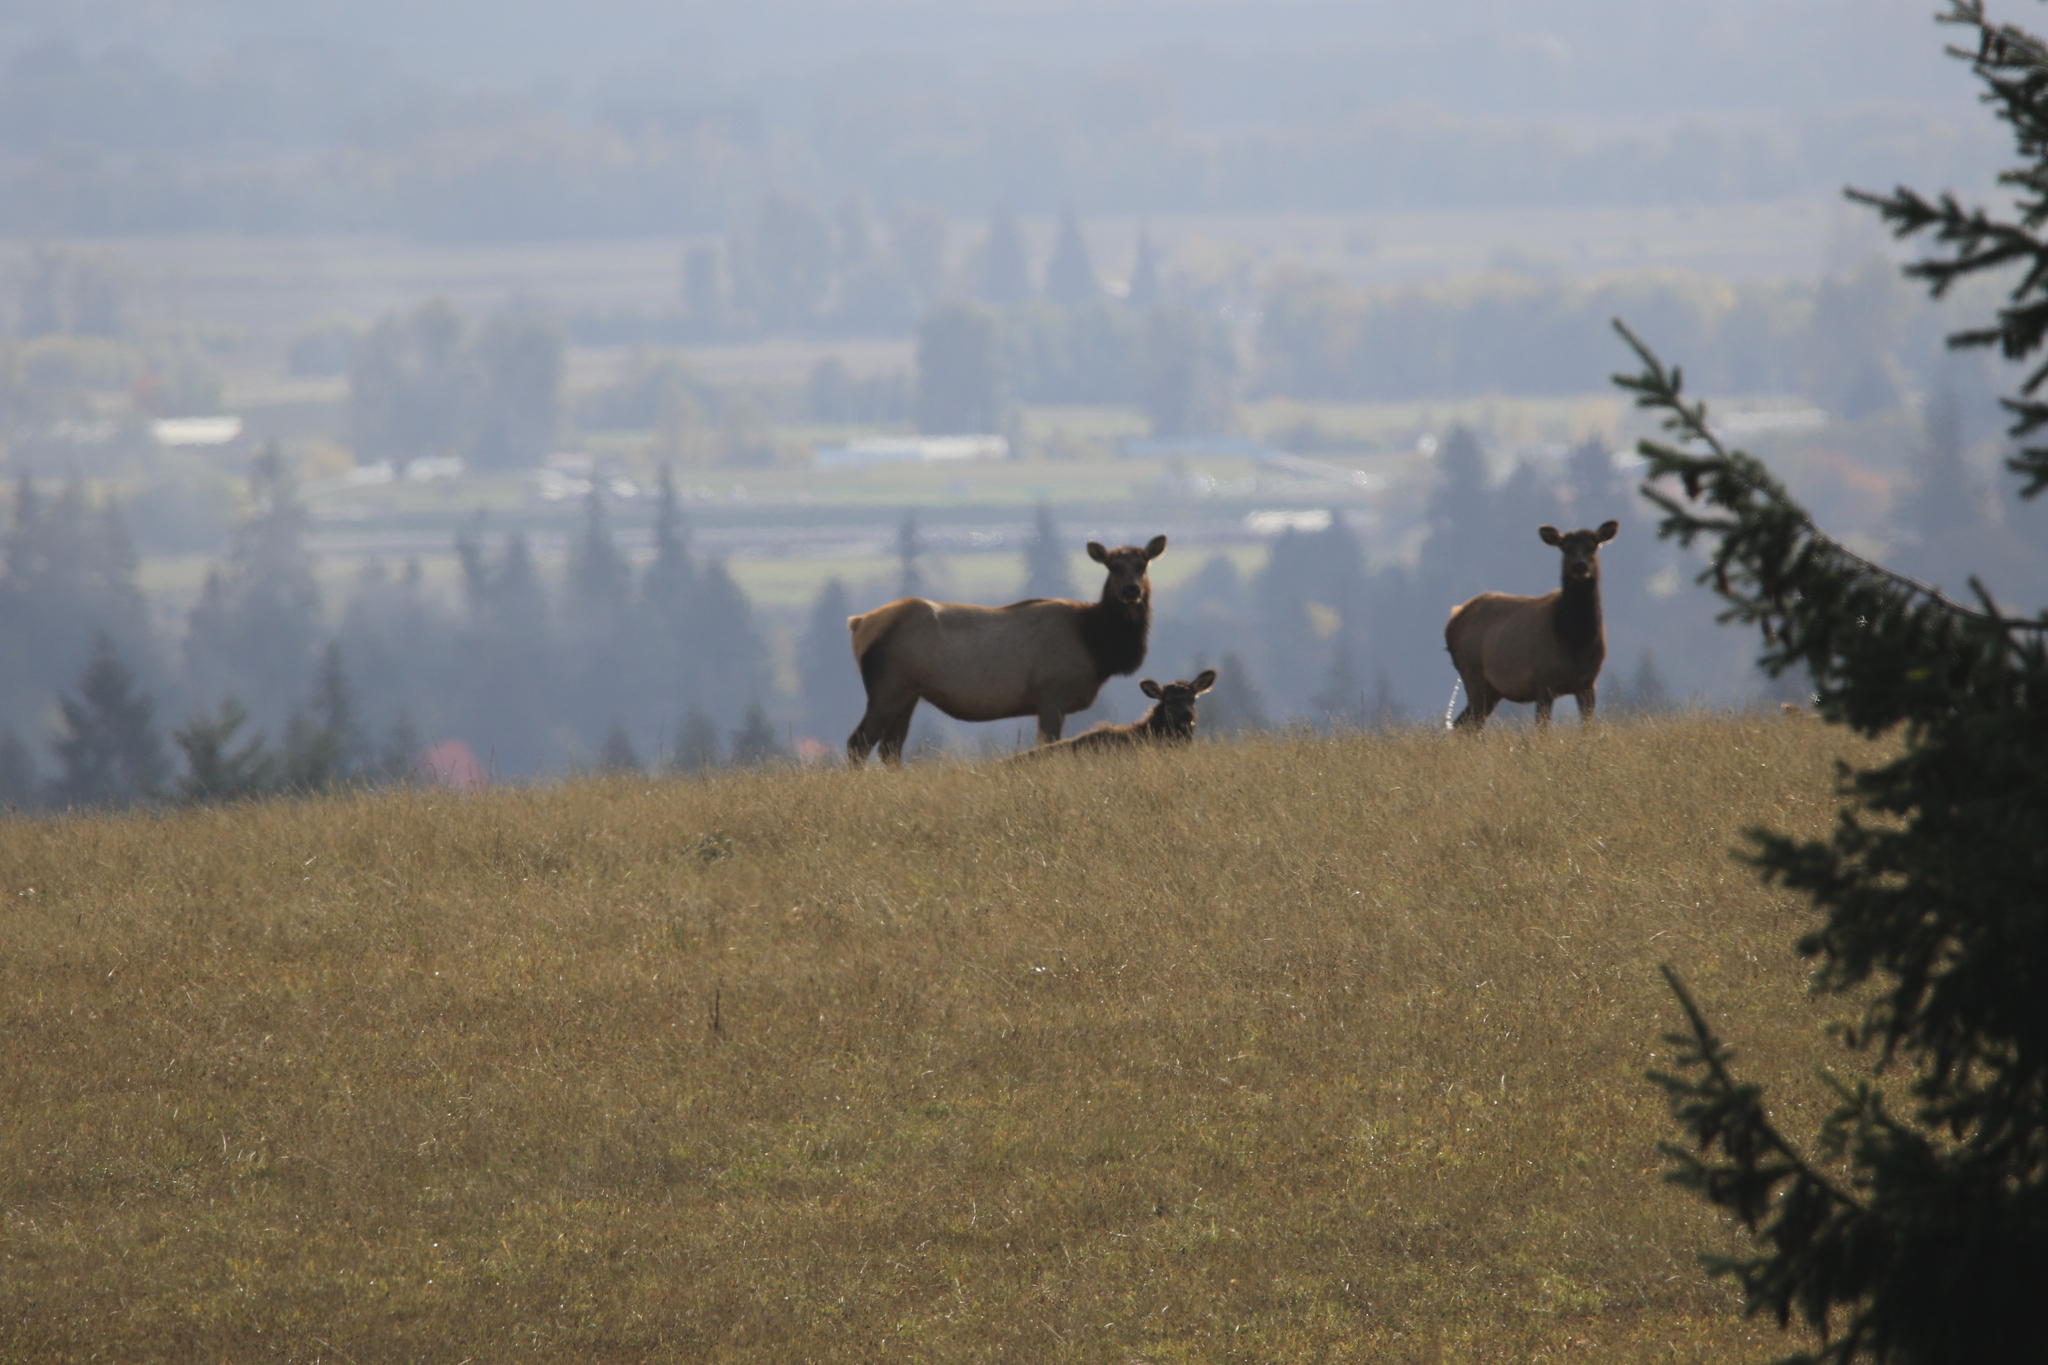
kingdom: Animalia
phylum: Chordata
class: Mammalia
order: Artiodactyla
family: Cervidae
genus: Cervus
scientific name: Cervus elaphus
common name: Red deer
